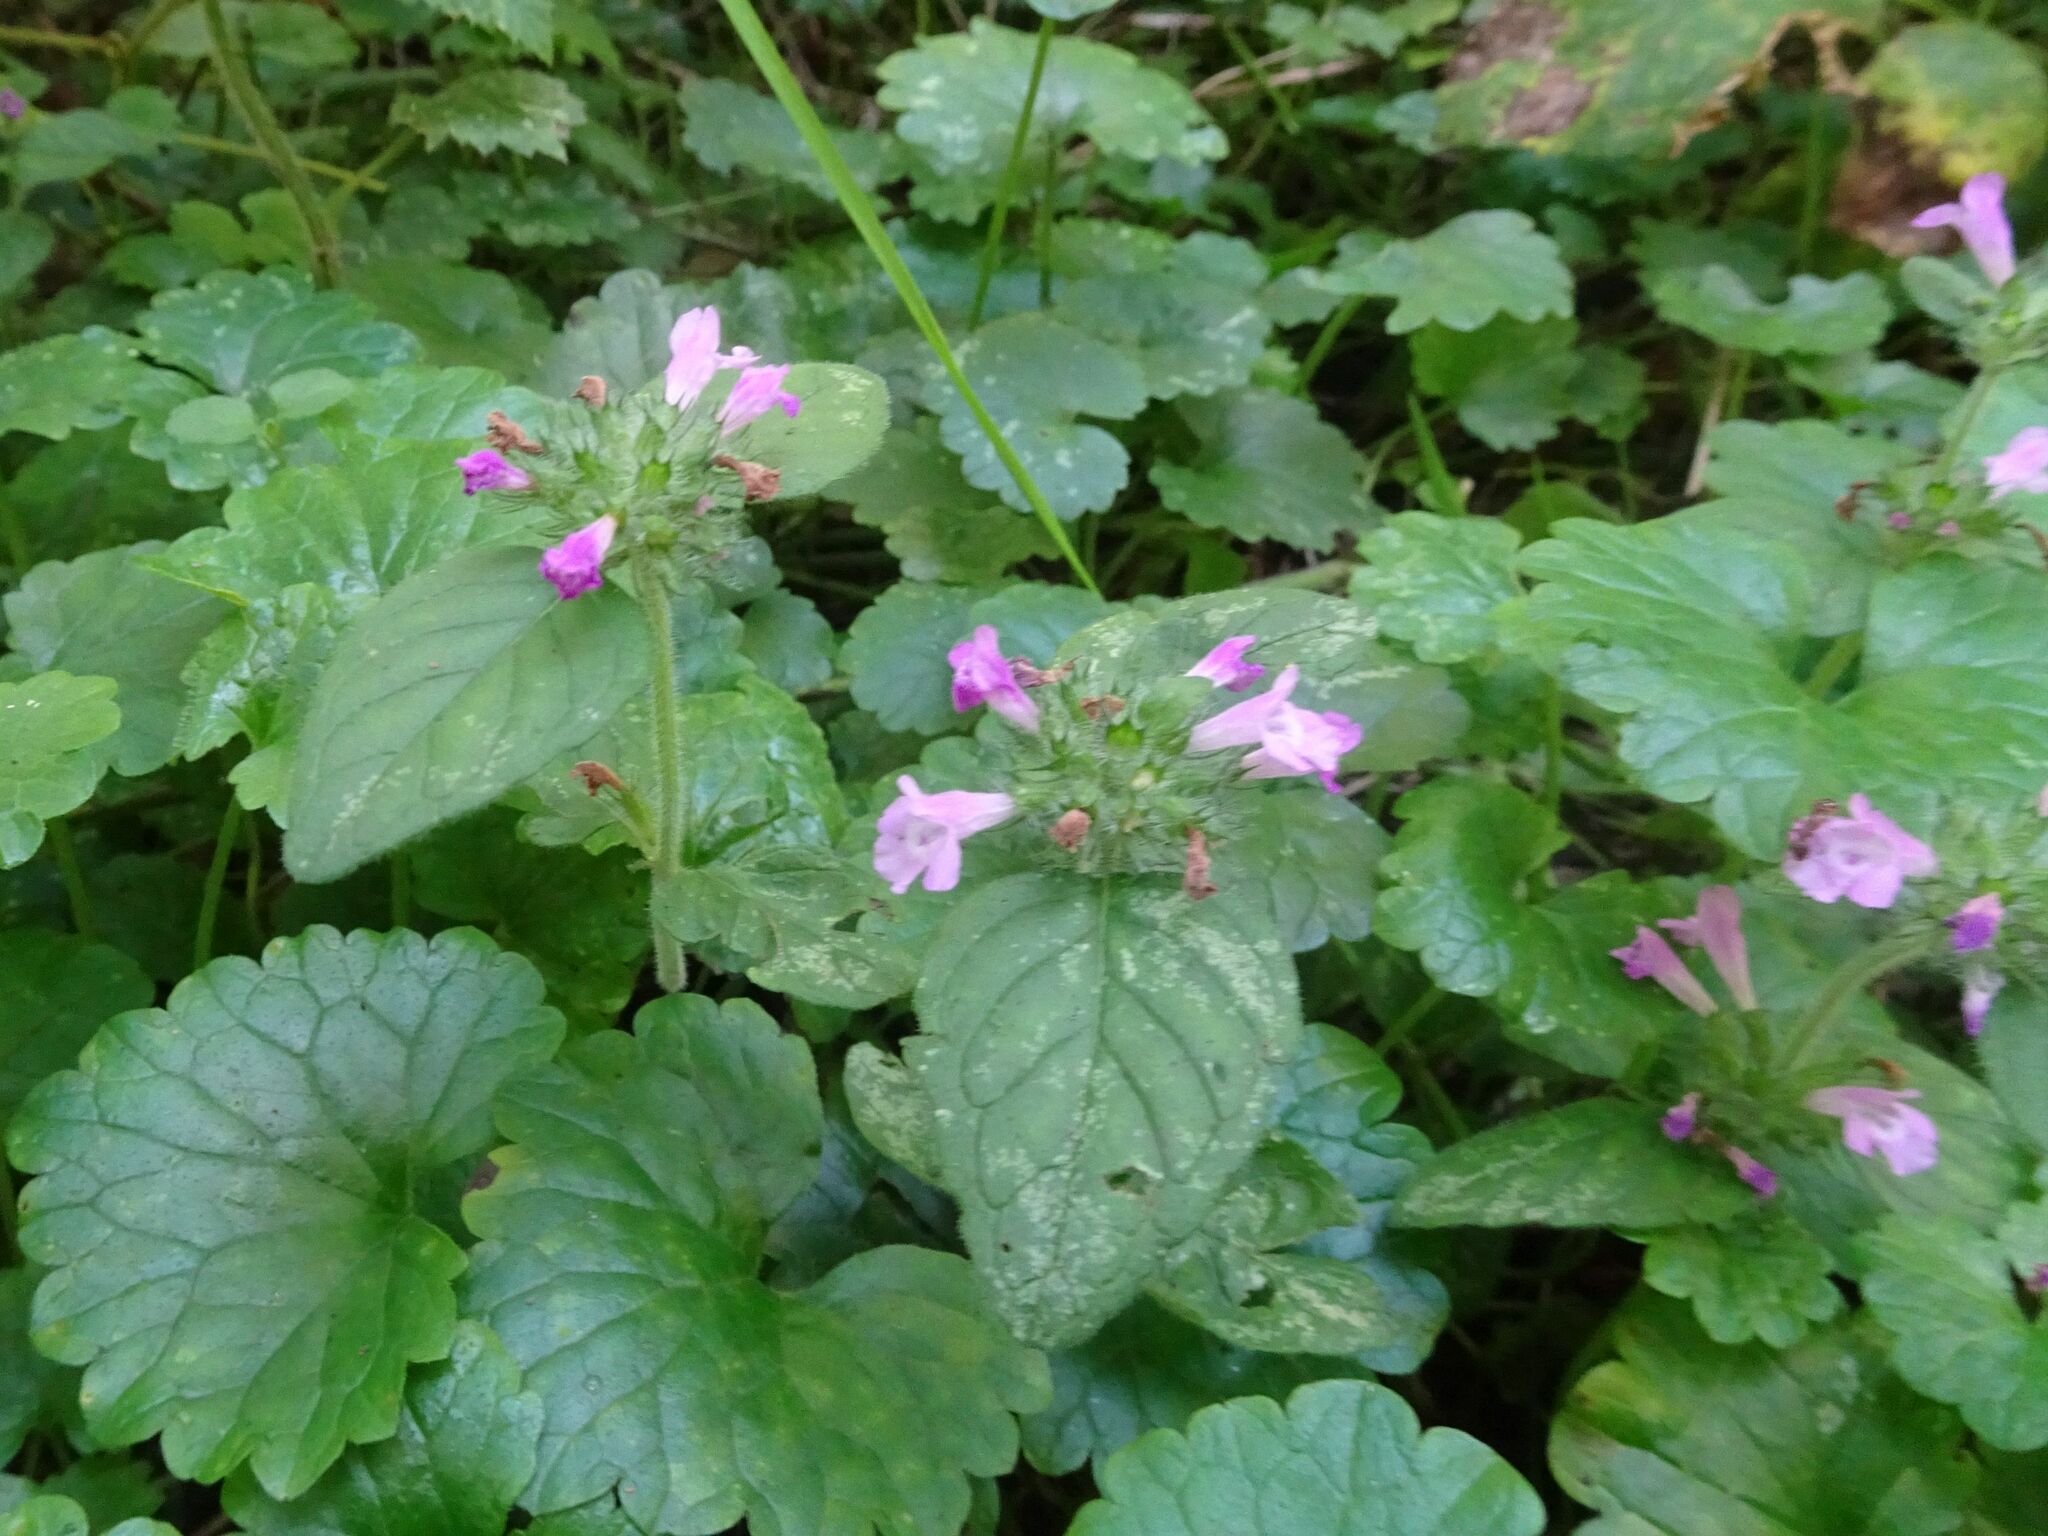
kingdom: Plantae
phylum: Tracheophyta
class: Magnoliopsida
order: Lamiales
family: Lamiaceae
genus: Clinopodium
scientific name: Clinopodium vulgare
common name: Wild basil
